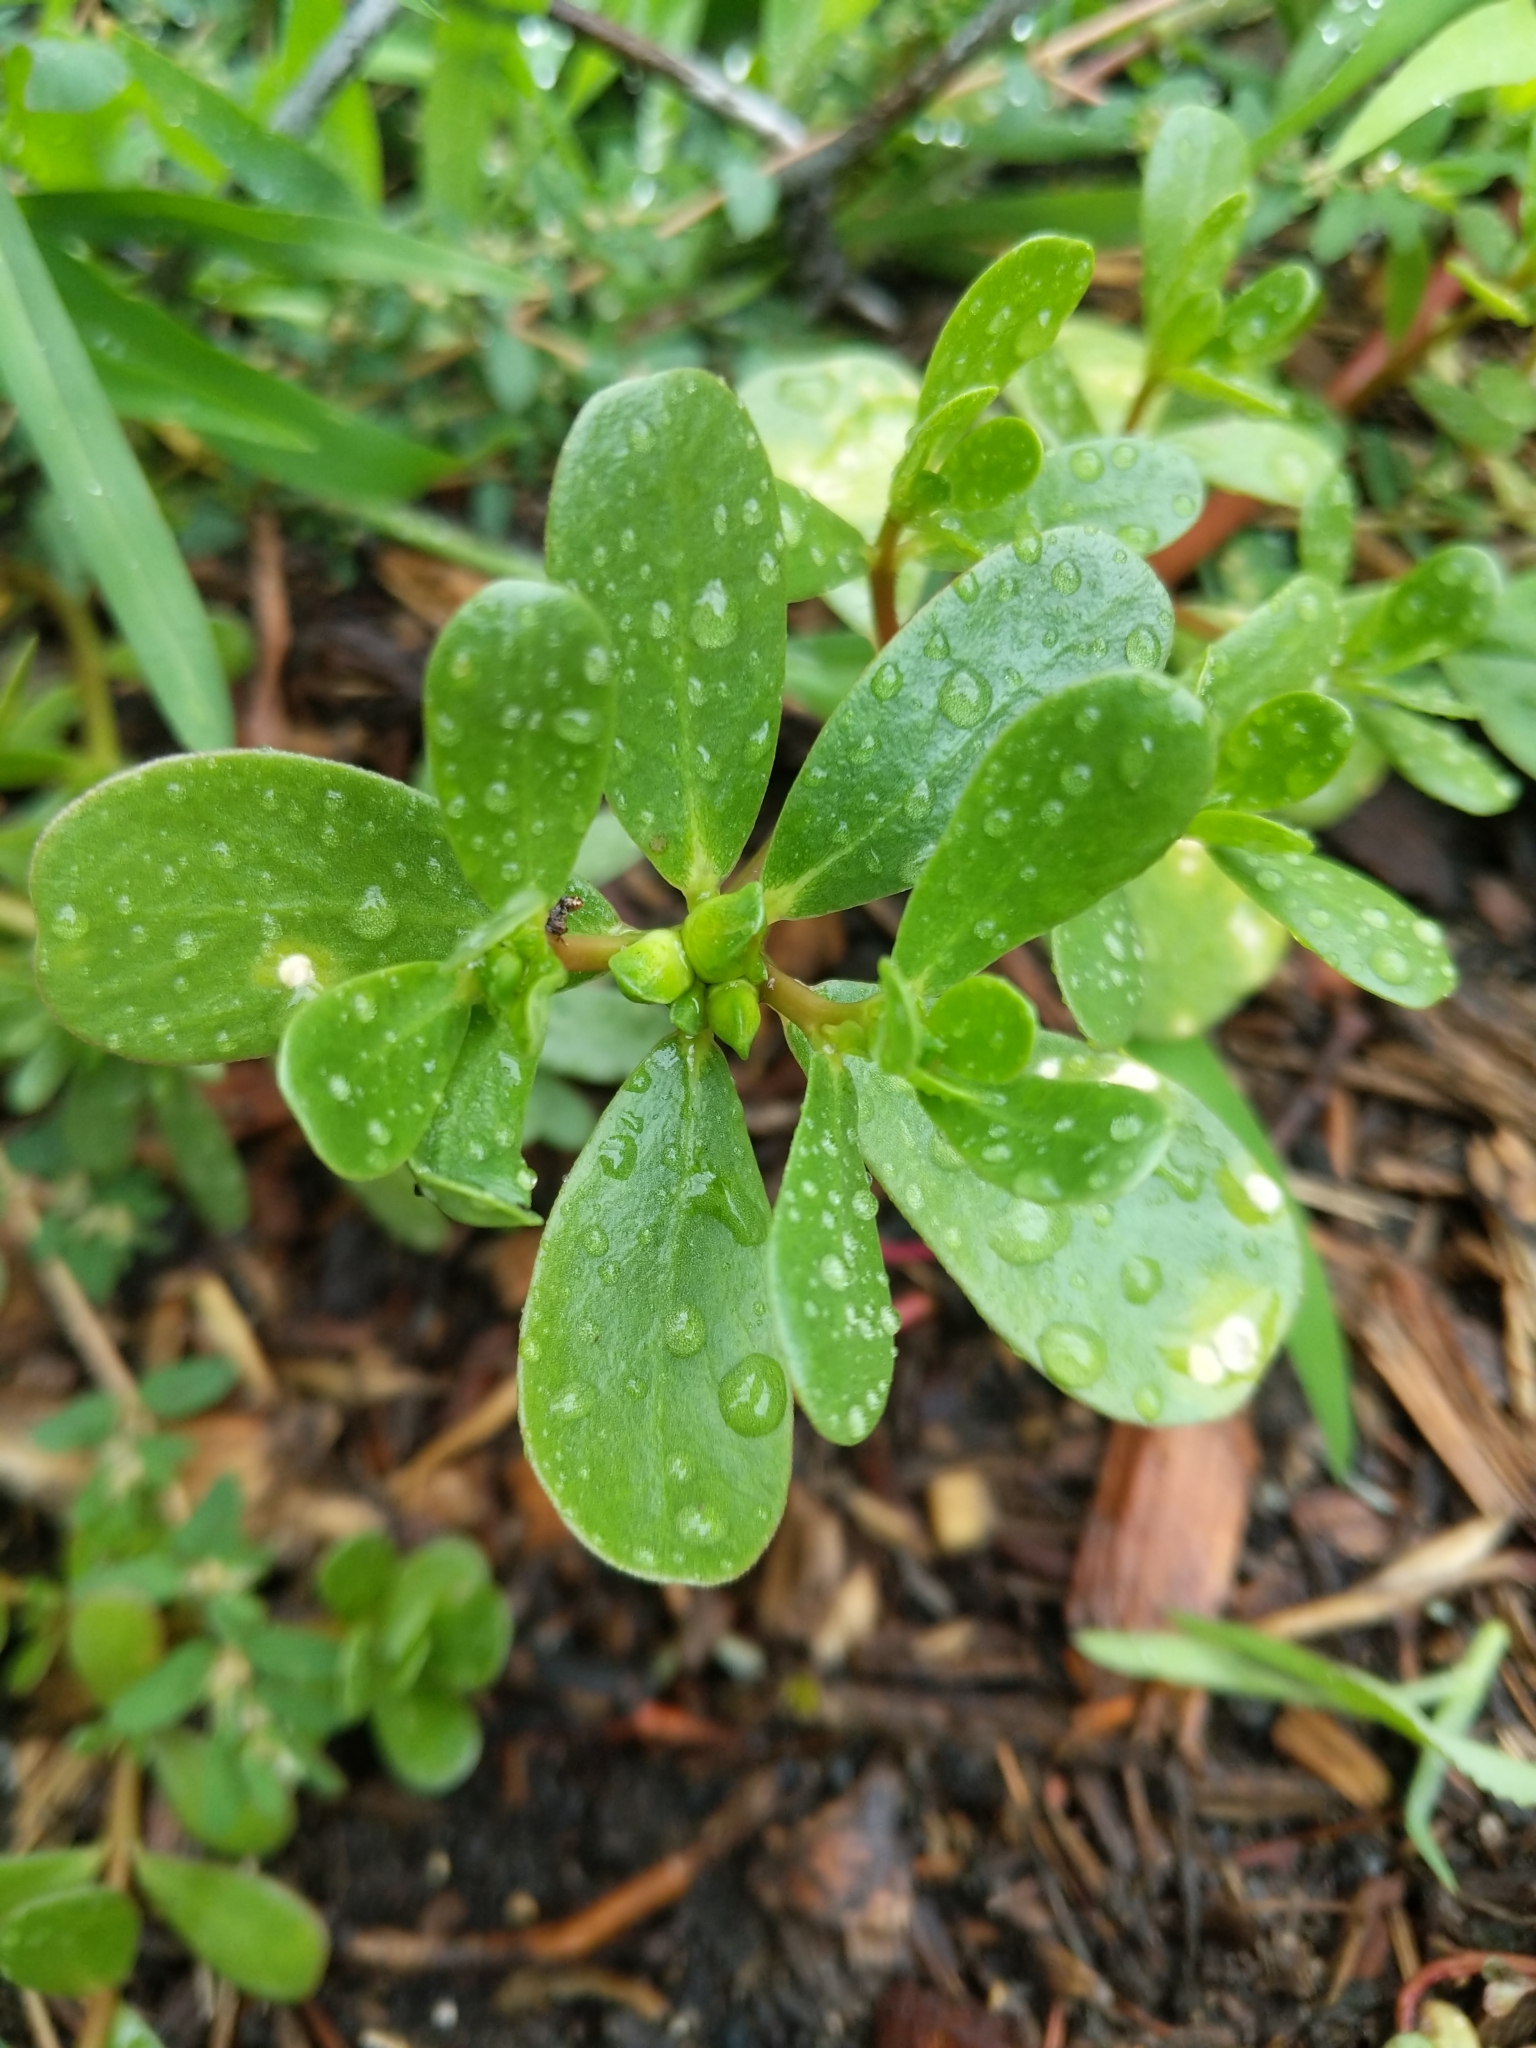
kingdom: Plantae
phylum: Tracheophyta
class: Magnoliopsida
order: Caryophyllales
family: Portulacaceae
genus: Portulaca
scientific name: Portulaca oleracea
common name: Common purslane
